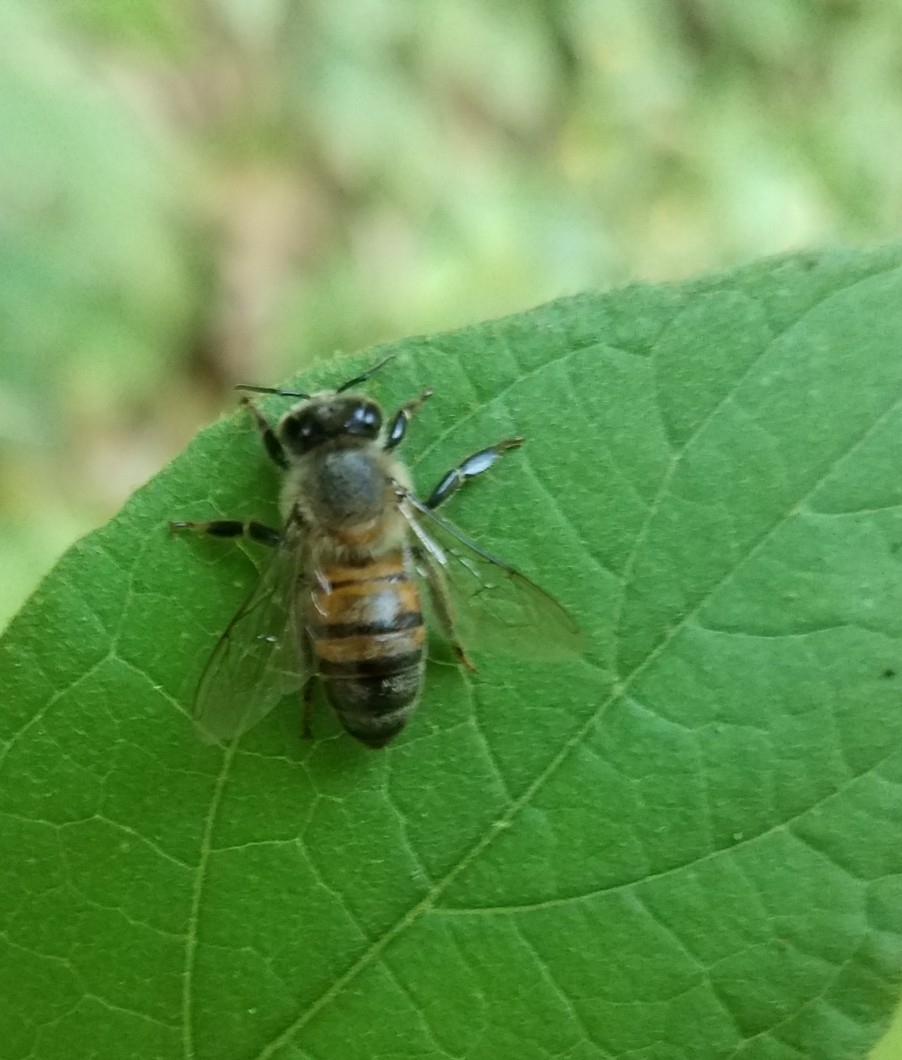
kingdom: Animalia
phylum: Arthropoda
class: Insecta
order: Hymenoptera
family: Apidae
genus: Apis
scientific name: Apis mellifera
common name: Honey bee
